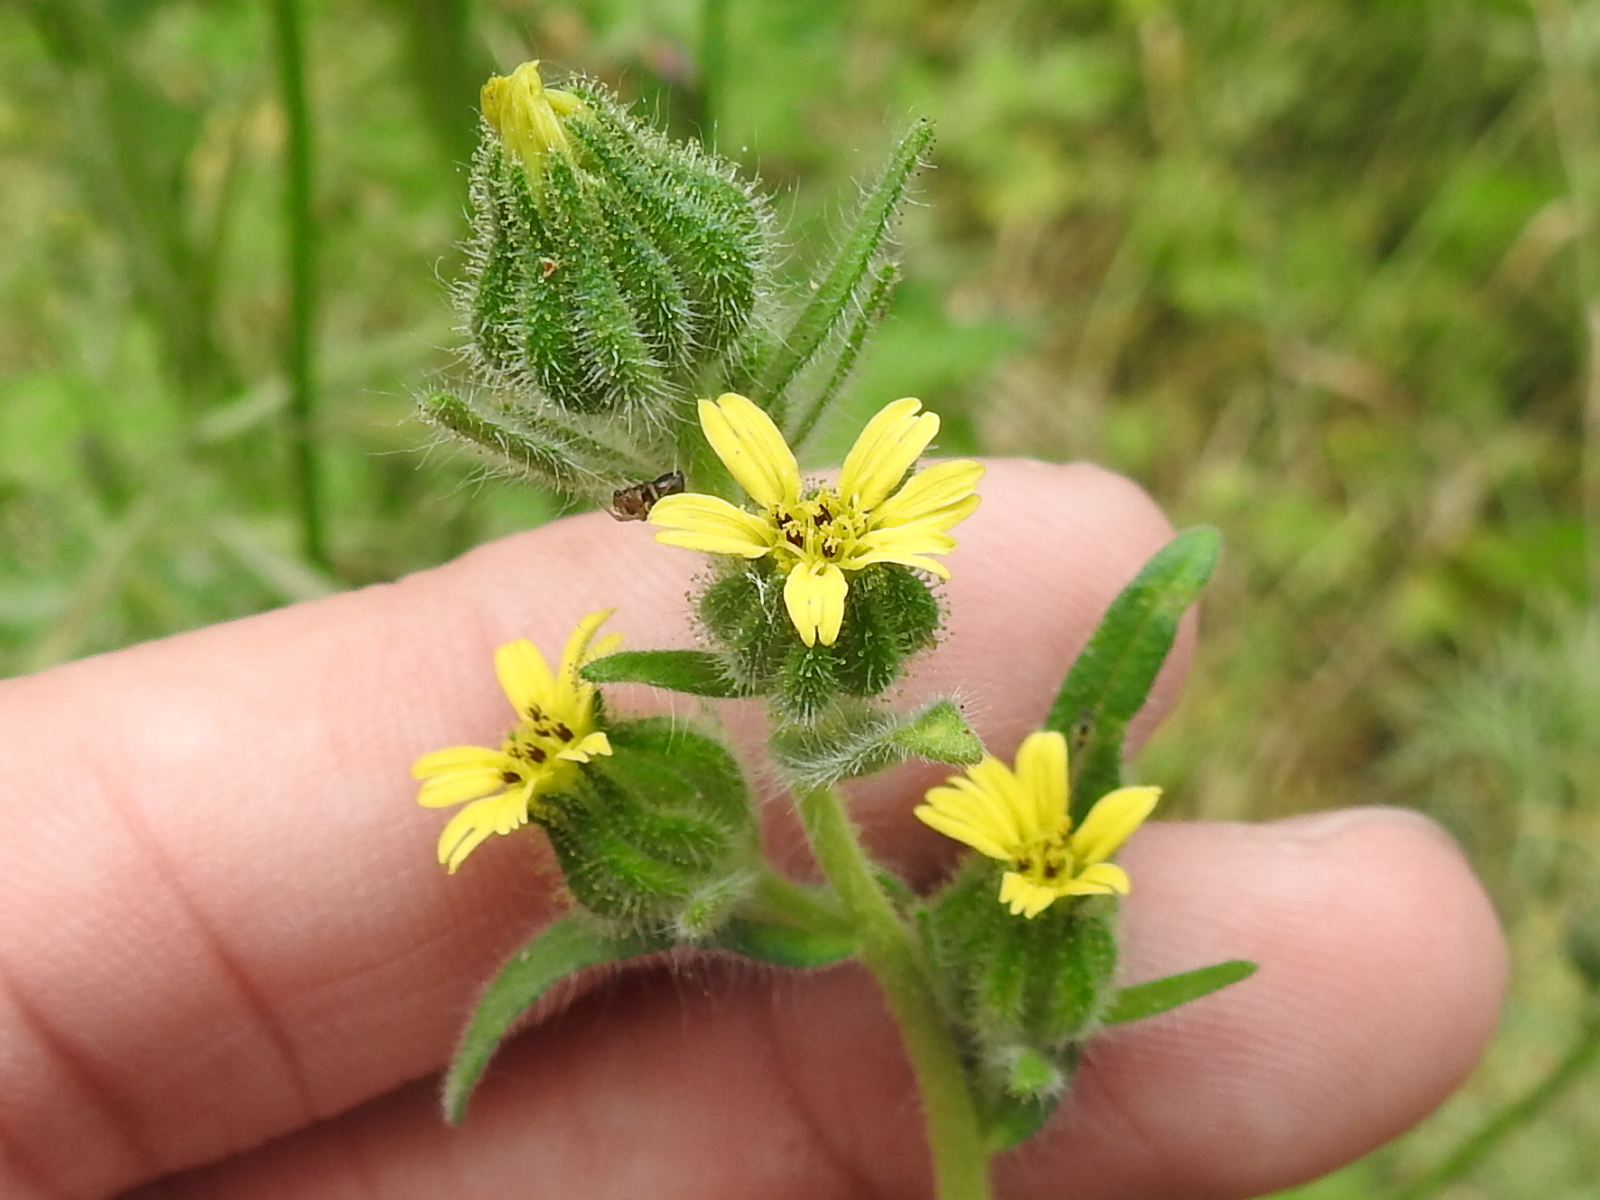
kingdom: Plantae
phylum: Tracheophyta
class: Magnoliopsida
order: Asterales
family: Asteraceae
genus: Madia
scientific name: Madia gracilis
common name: Grassy tarweed
